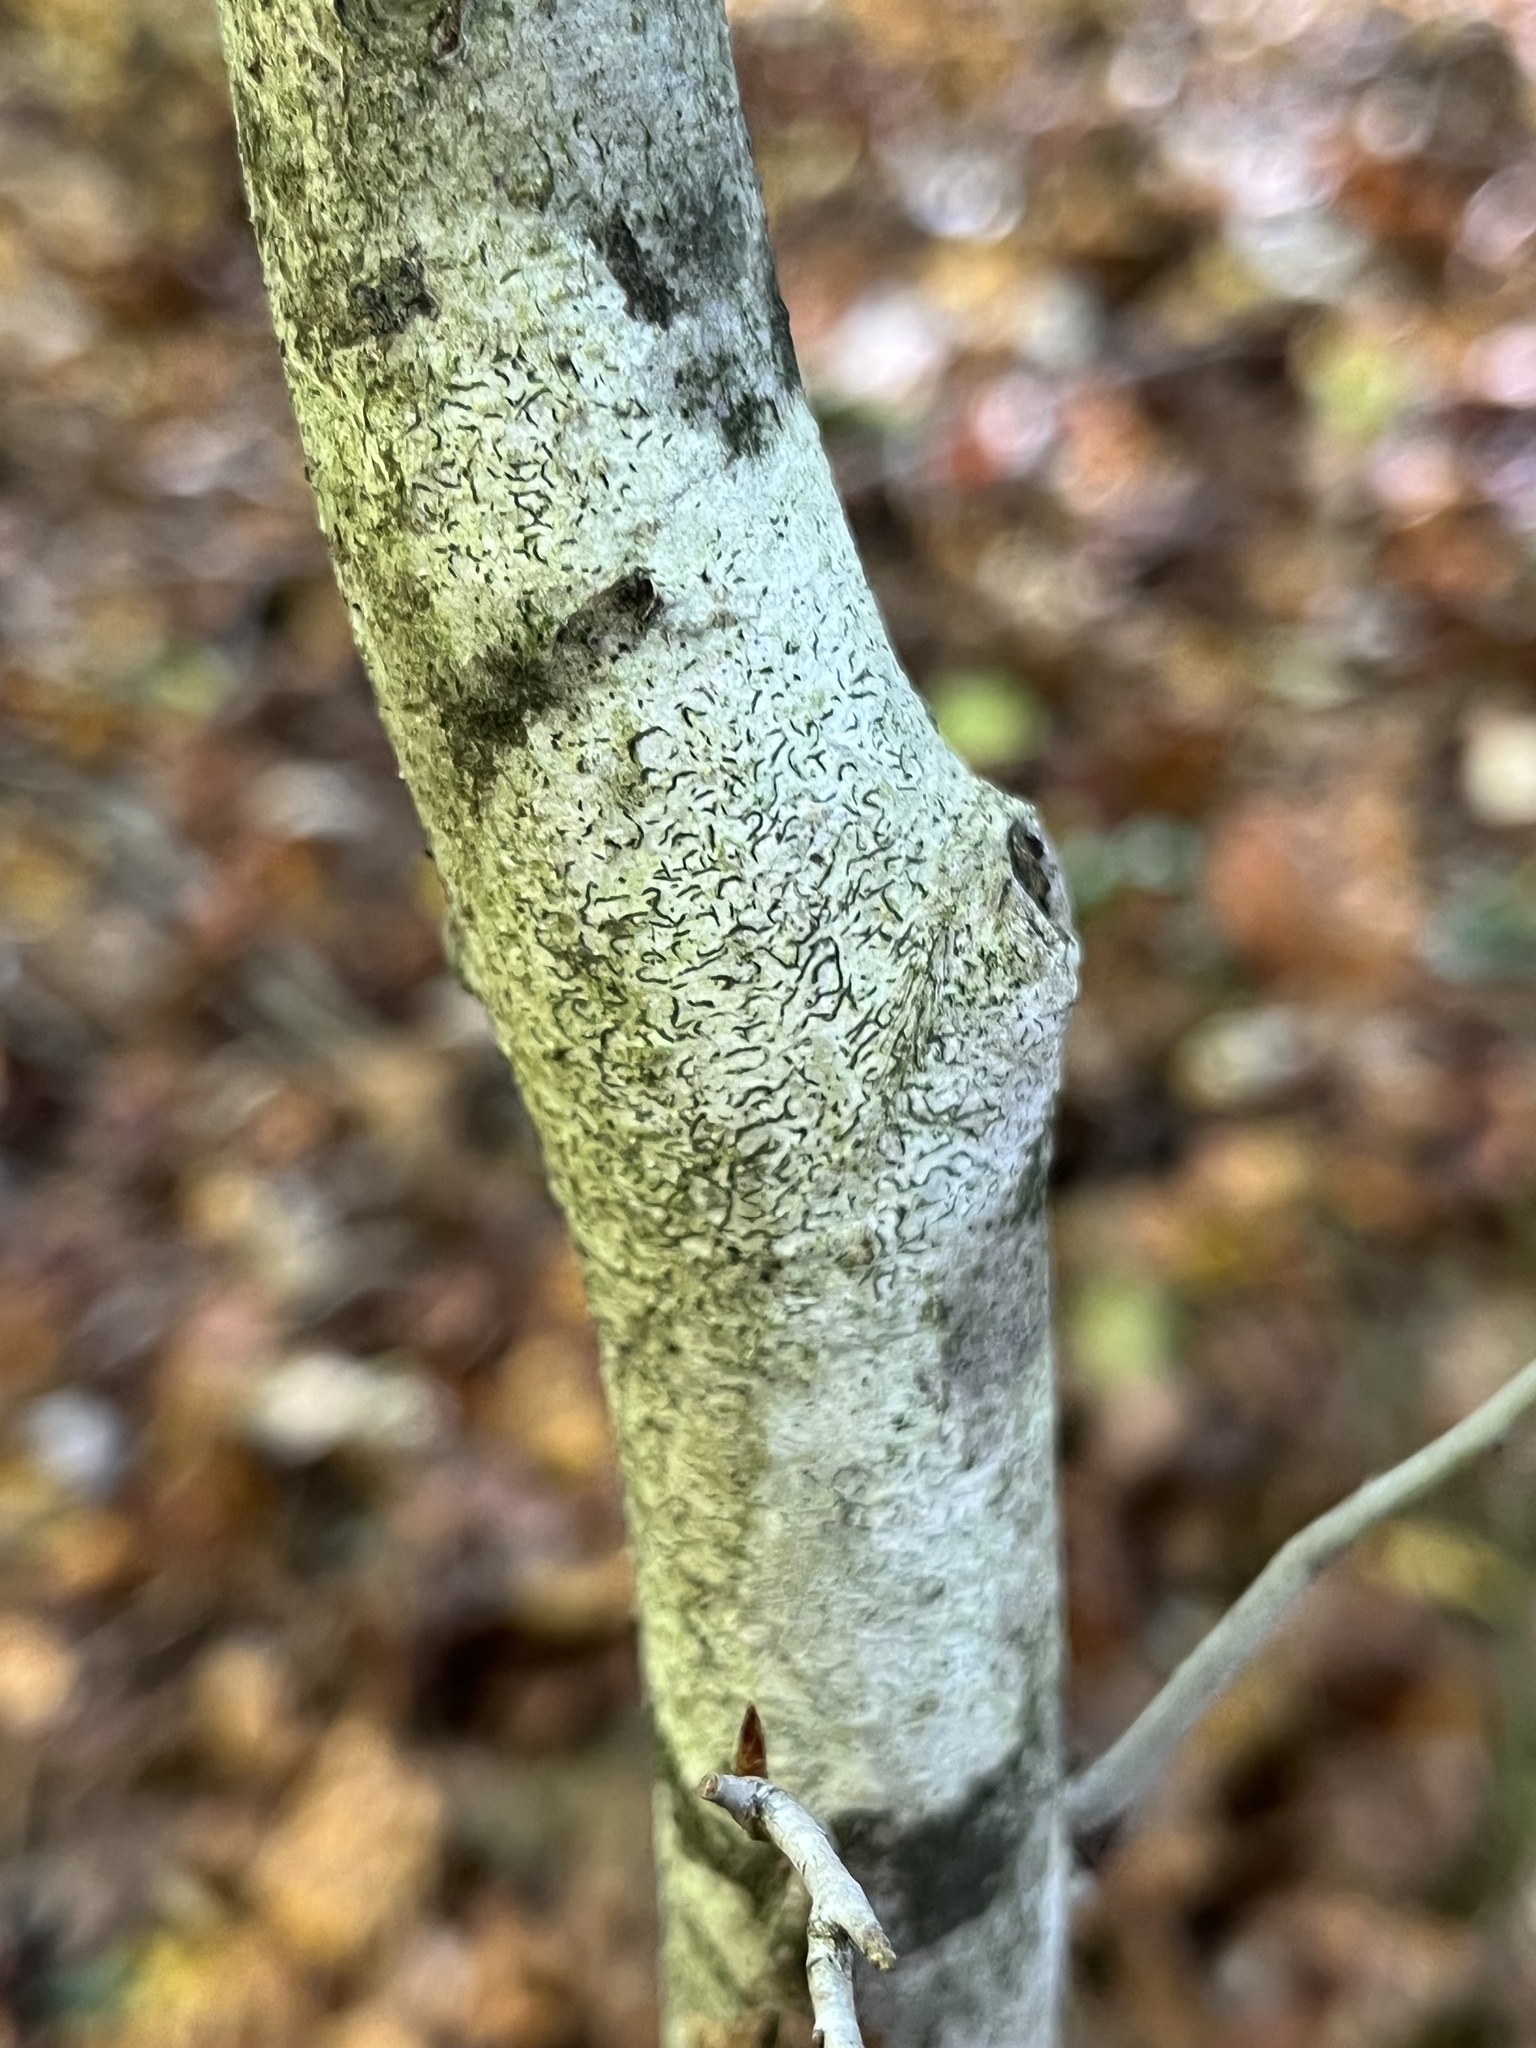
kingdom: Fungi
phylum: Ascomycota
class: Lecanoromycetes
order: Ostropales
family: Graphidaceae
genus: Graphis
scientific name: Graphis scripta
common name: Script lichen
